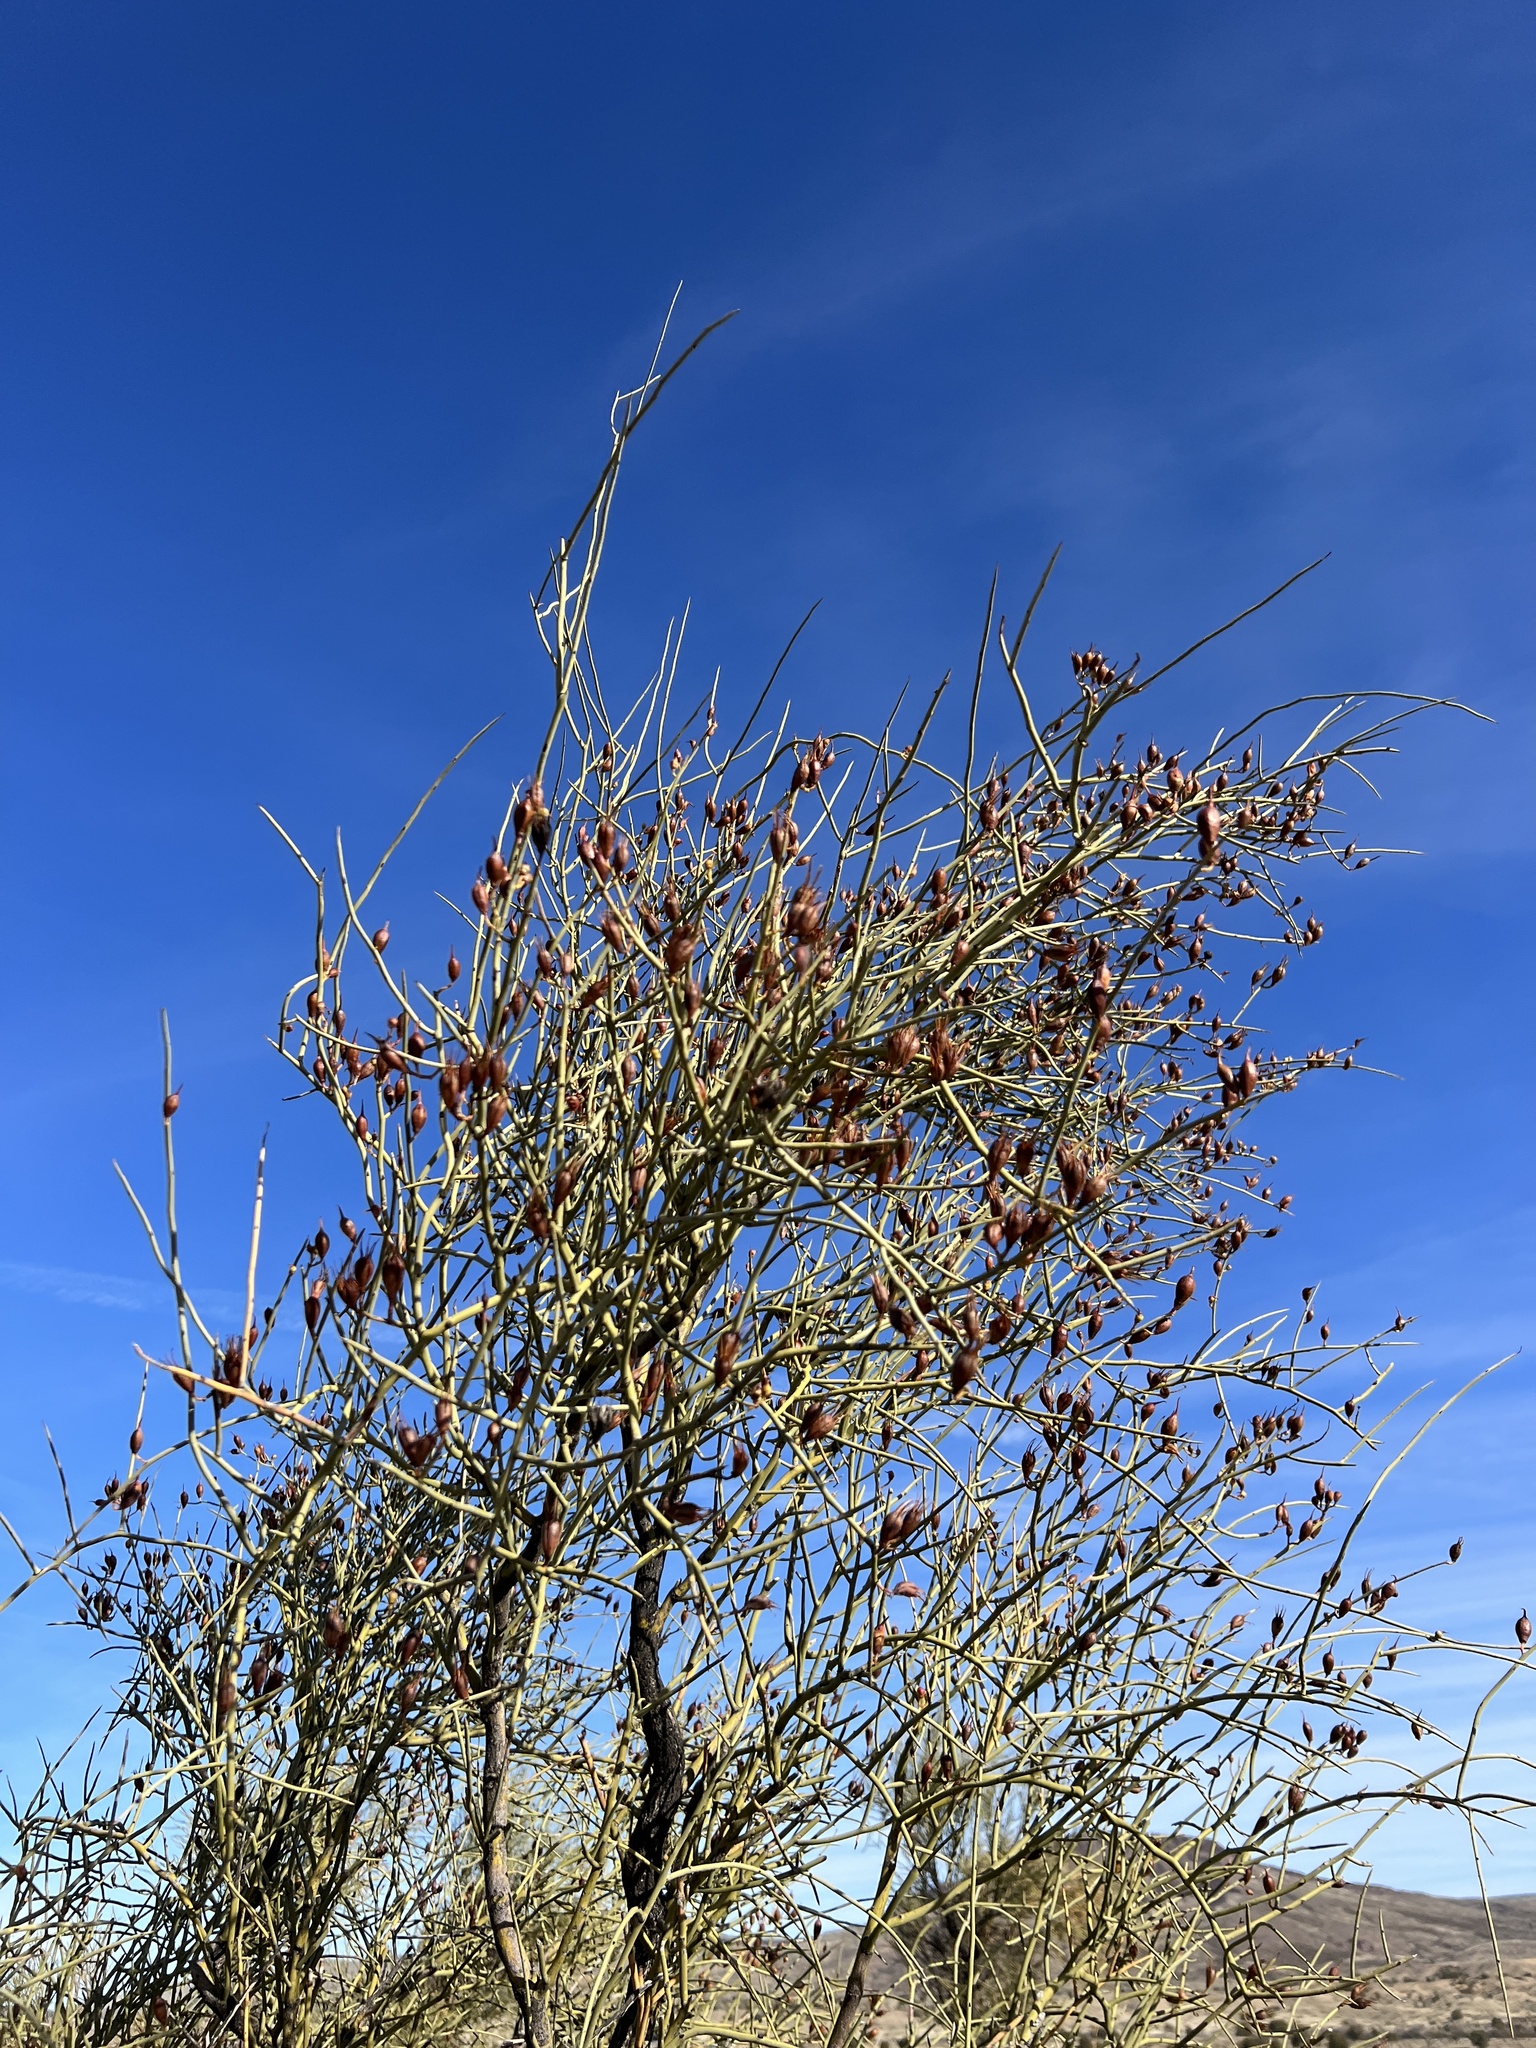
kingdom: Plantae
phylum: Tracheophyta
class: Magnoliopsida
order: Celastrales
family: Celastraceae
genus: Canotia
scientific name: Canotia holacantha
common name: Crucifixion thorns
